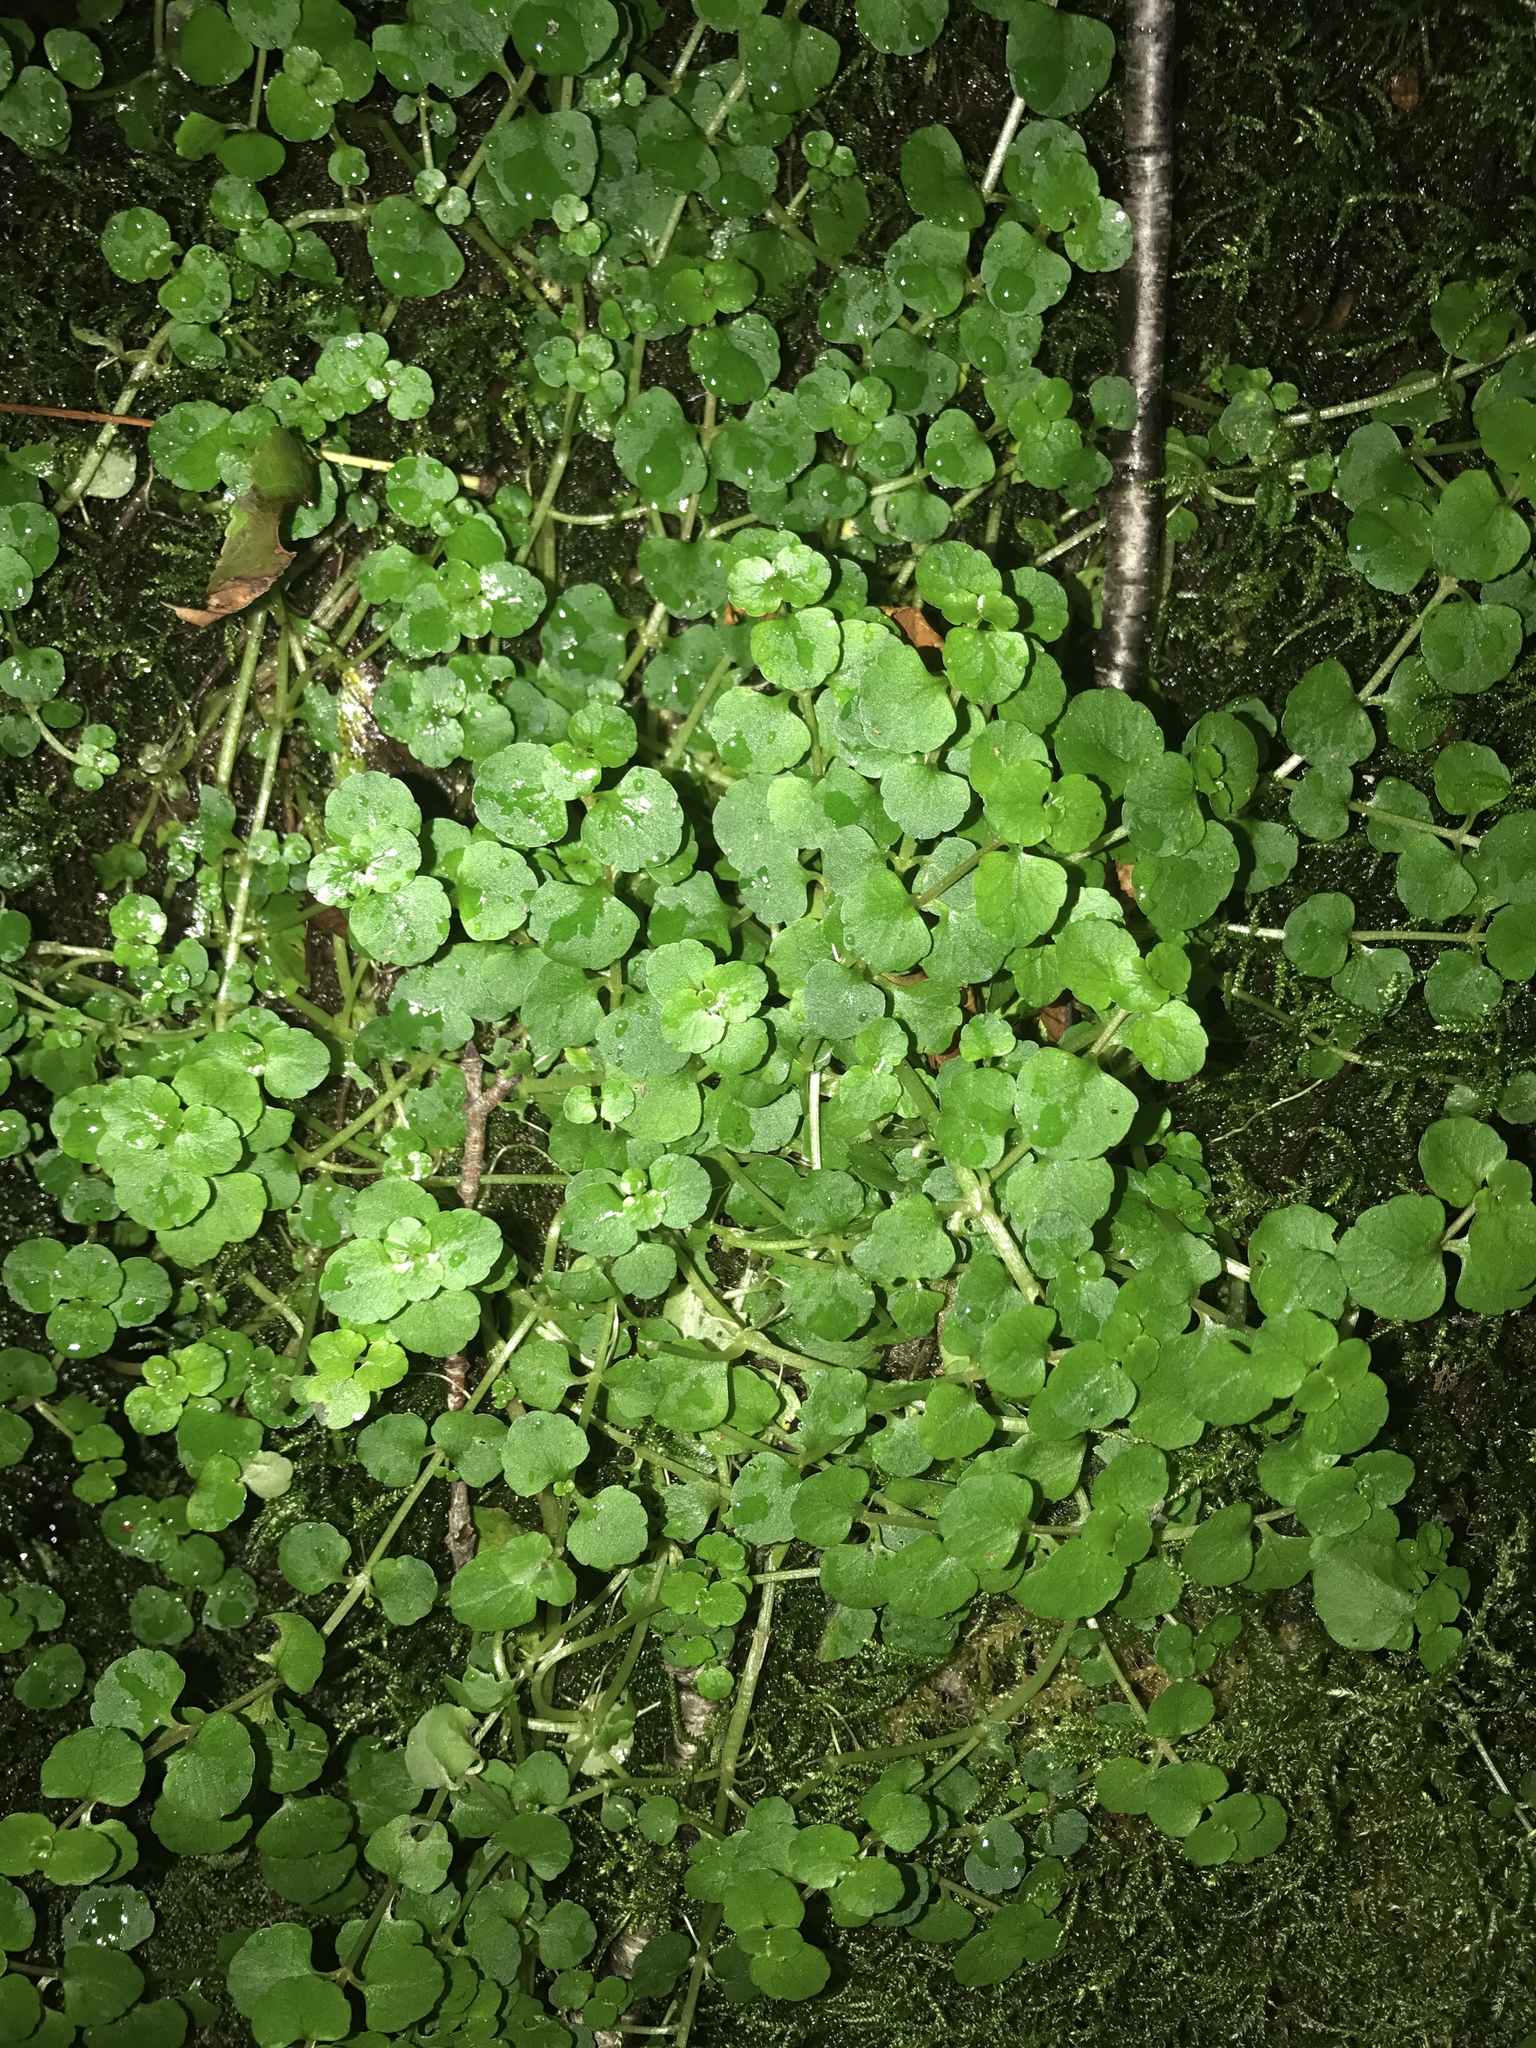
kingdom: Plantae
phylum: Tracheophyta
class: Magnoliopsida
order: Saxifragales
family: Saxifragaceae
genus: Chrysosplenium
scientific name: Chrysosplenium americanum
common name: American golden-saxifrage
